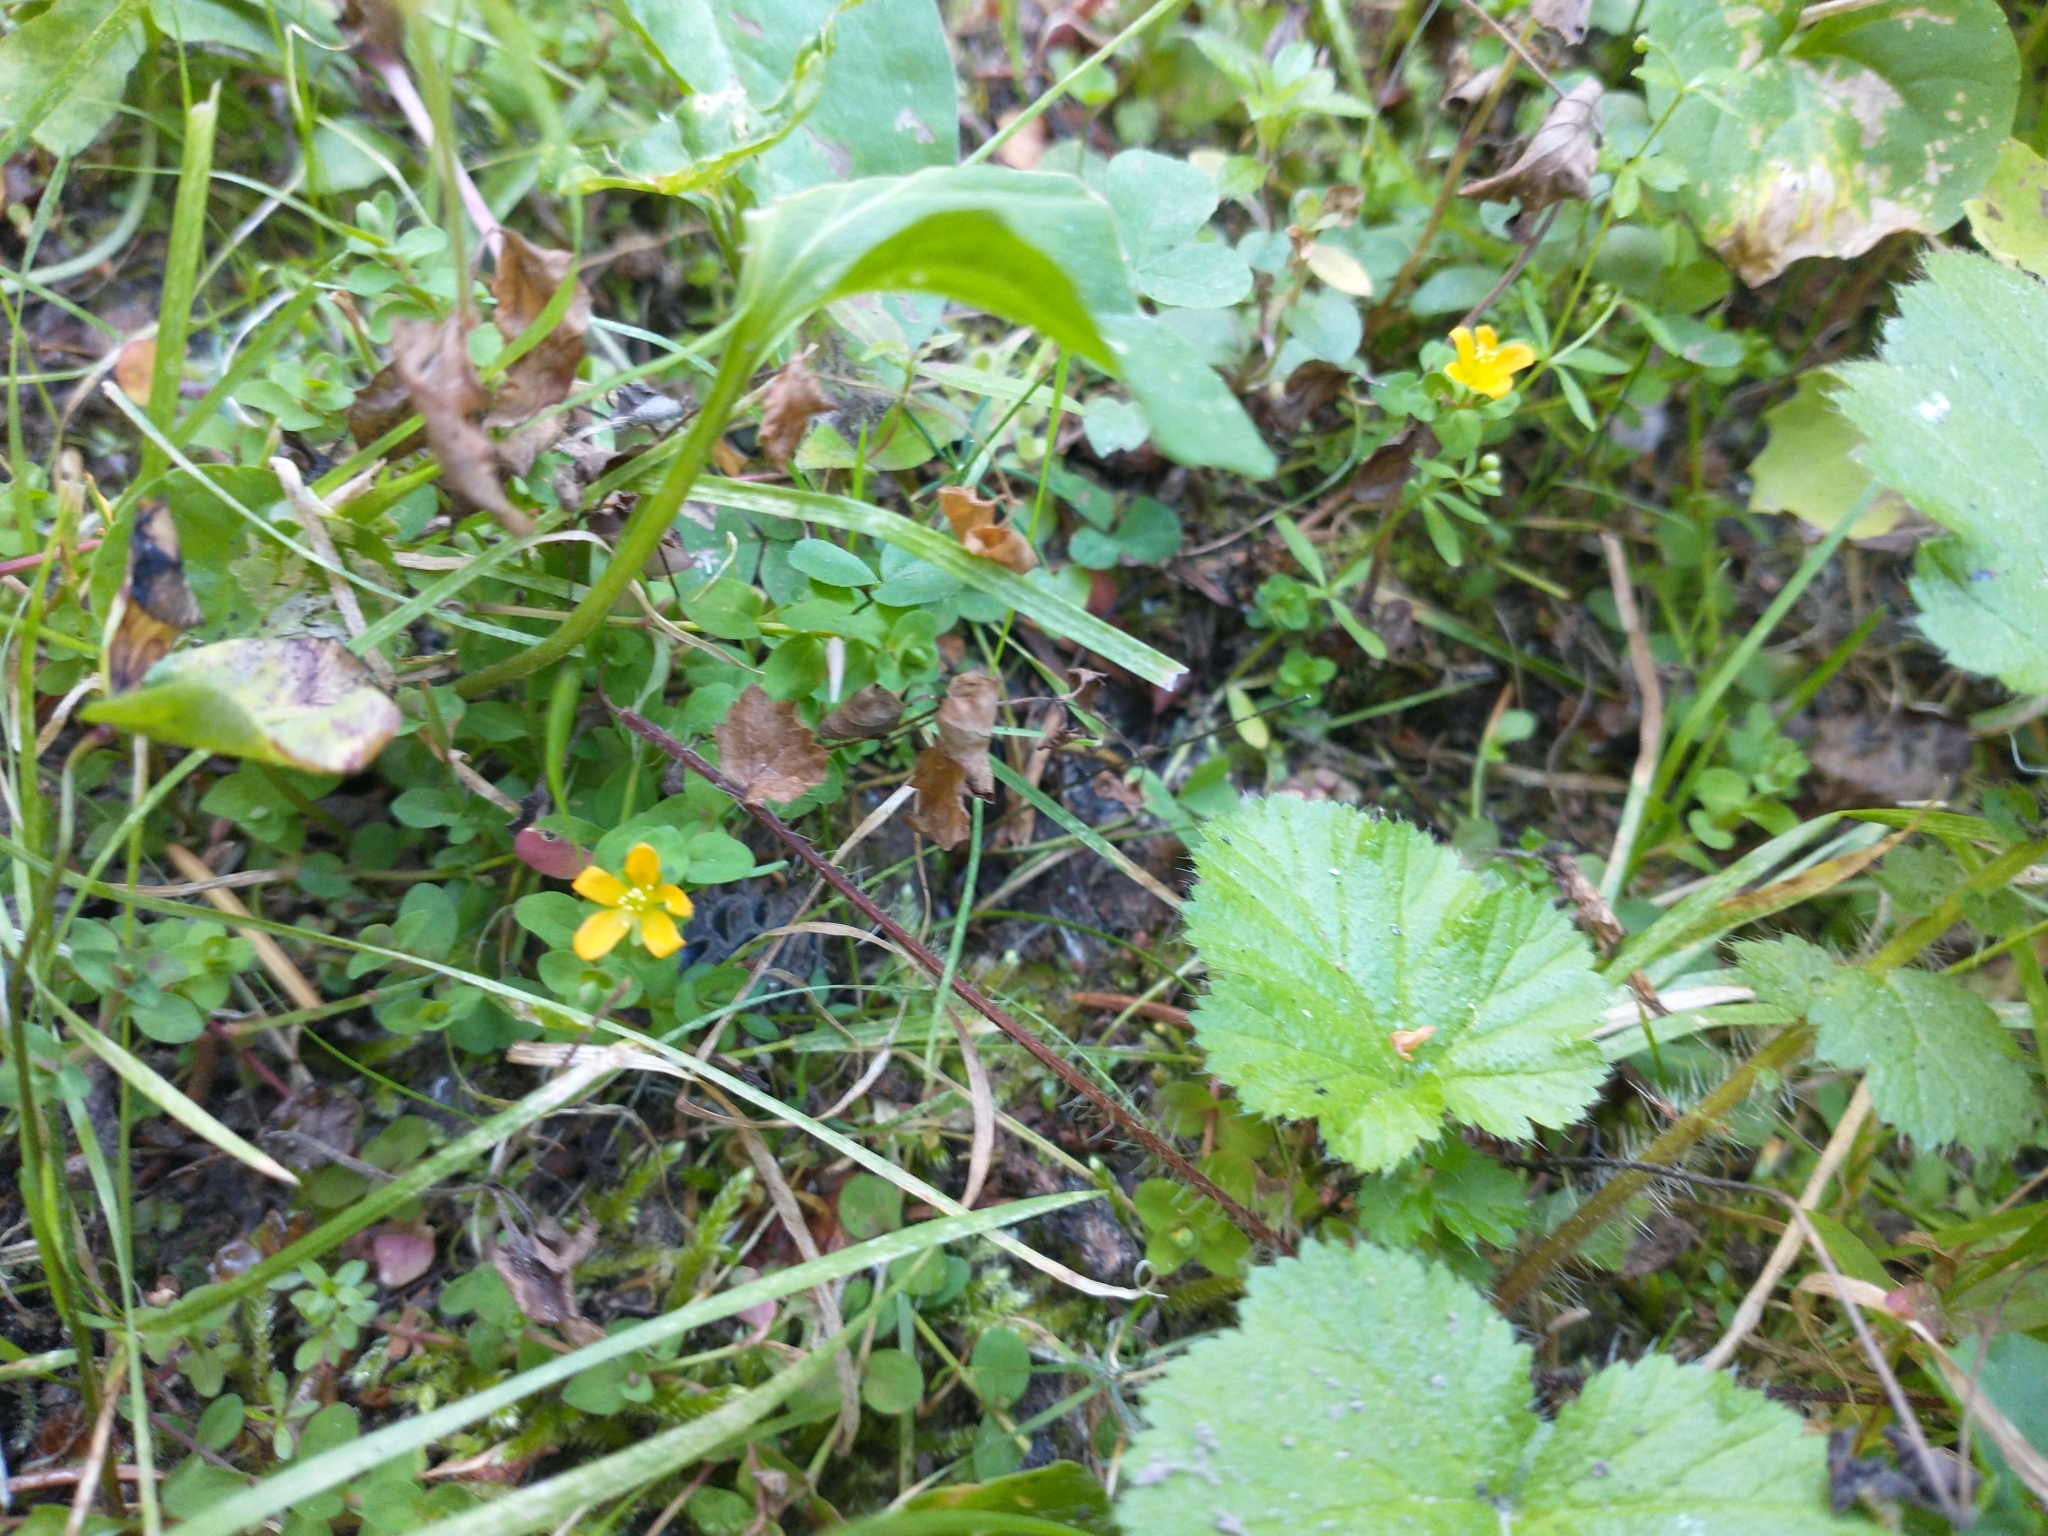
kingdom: Plantae
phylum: Tracheophyta
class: Magnoliopsida
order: Malpighiales
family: Hypericaceae
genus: Hypericum
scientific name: Hypericum anagalloides
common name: Bog st. john's-wort
